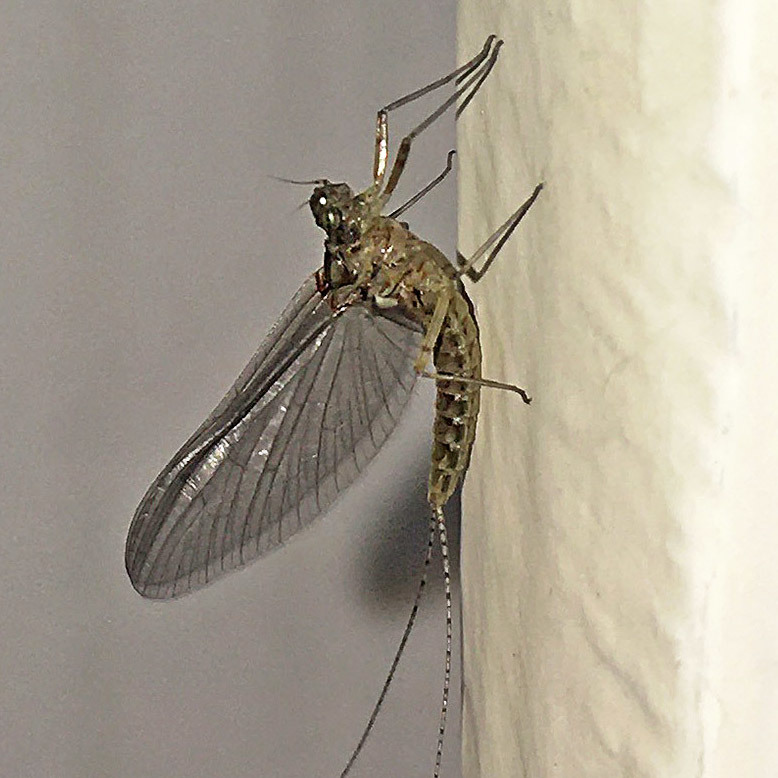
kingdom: Animalia
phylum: Arthropoda
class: Insecta
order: Ephemeroptera
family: Baetidae
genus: Cloeon
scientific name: Cloeon dipterum
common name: Pond olive
